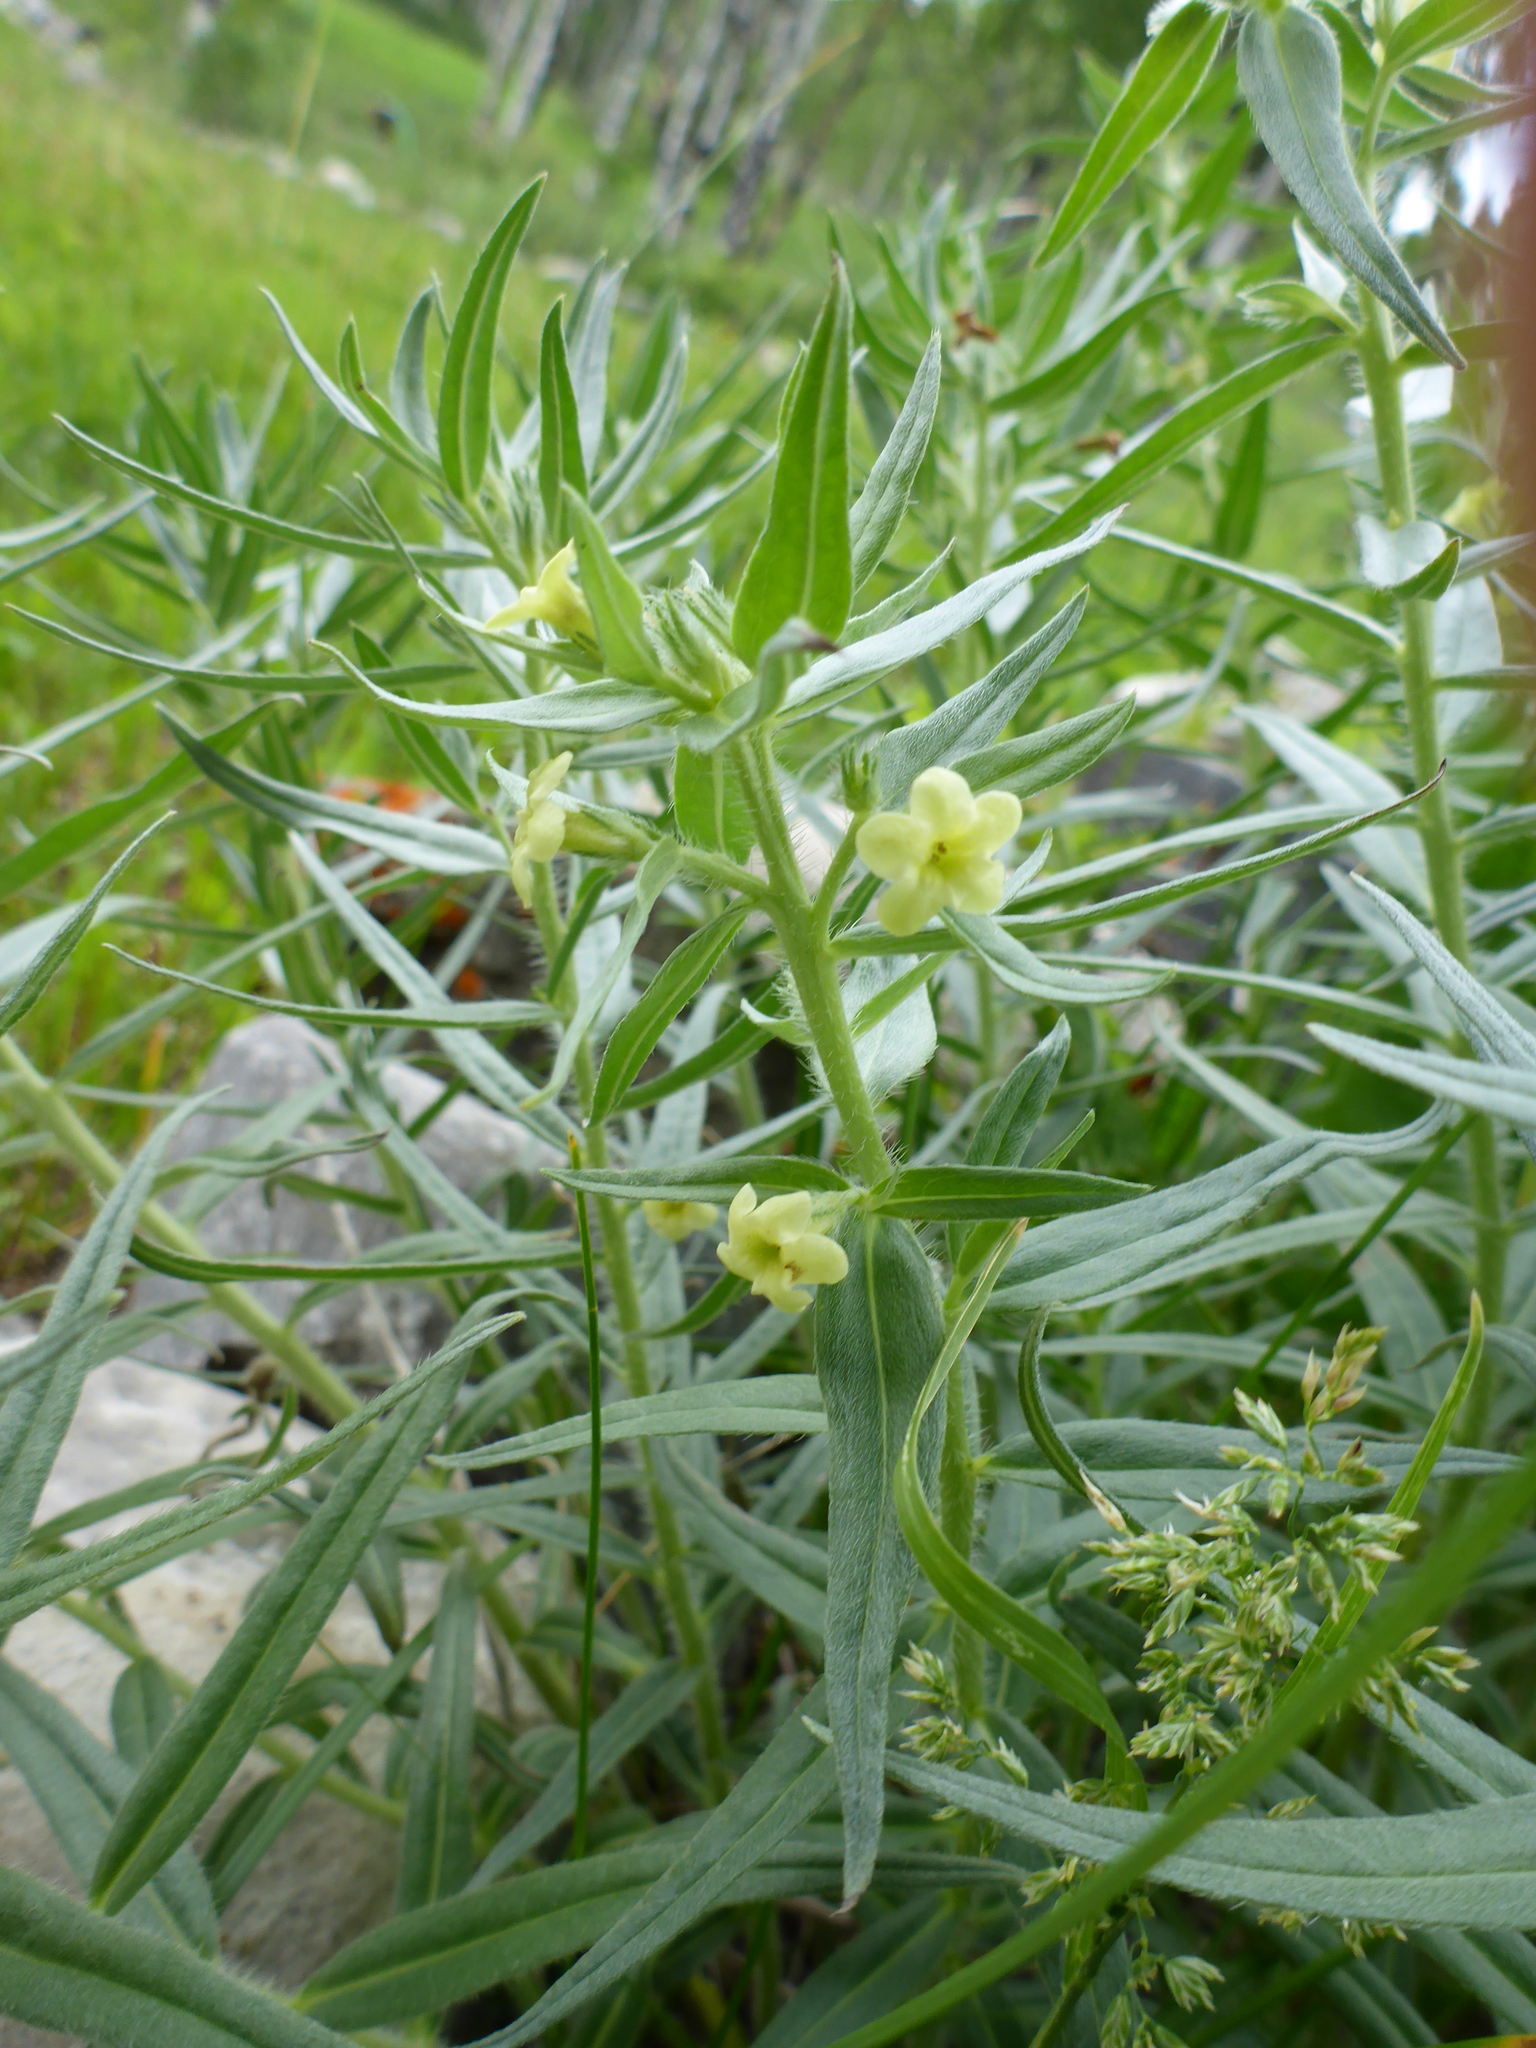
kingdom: Plantae
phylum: Tracheophyta
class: Magnoliopsida
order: Boraginales
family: Boraginaceae
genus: Lithospermum
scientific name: Lithospermum ruderale
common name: Western gromwell
